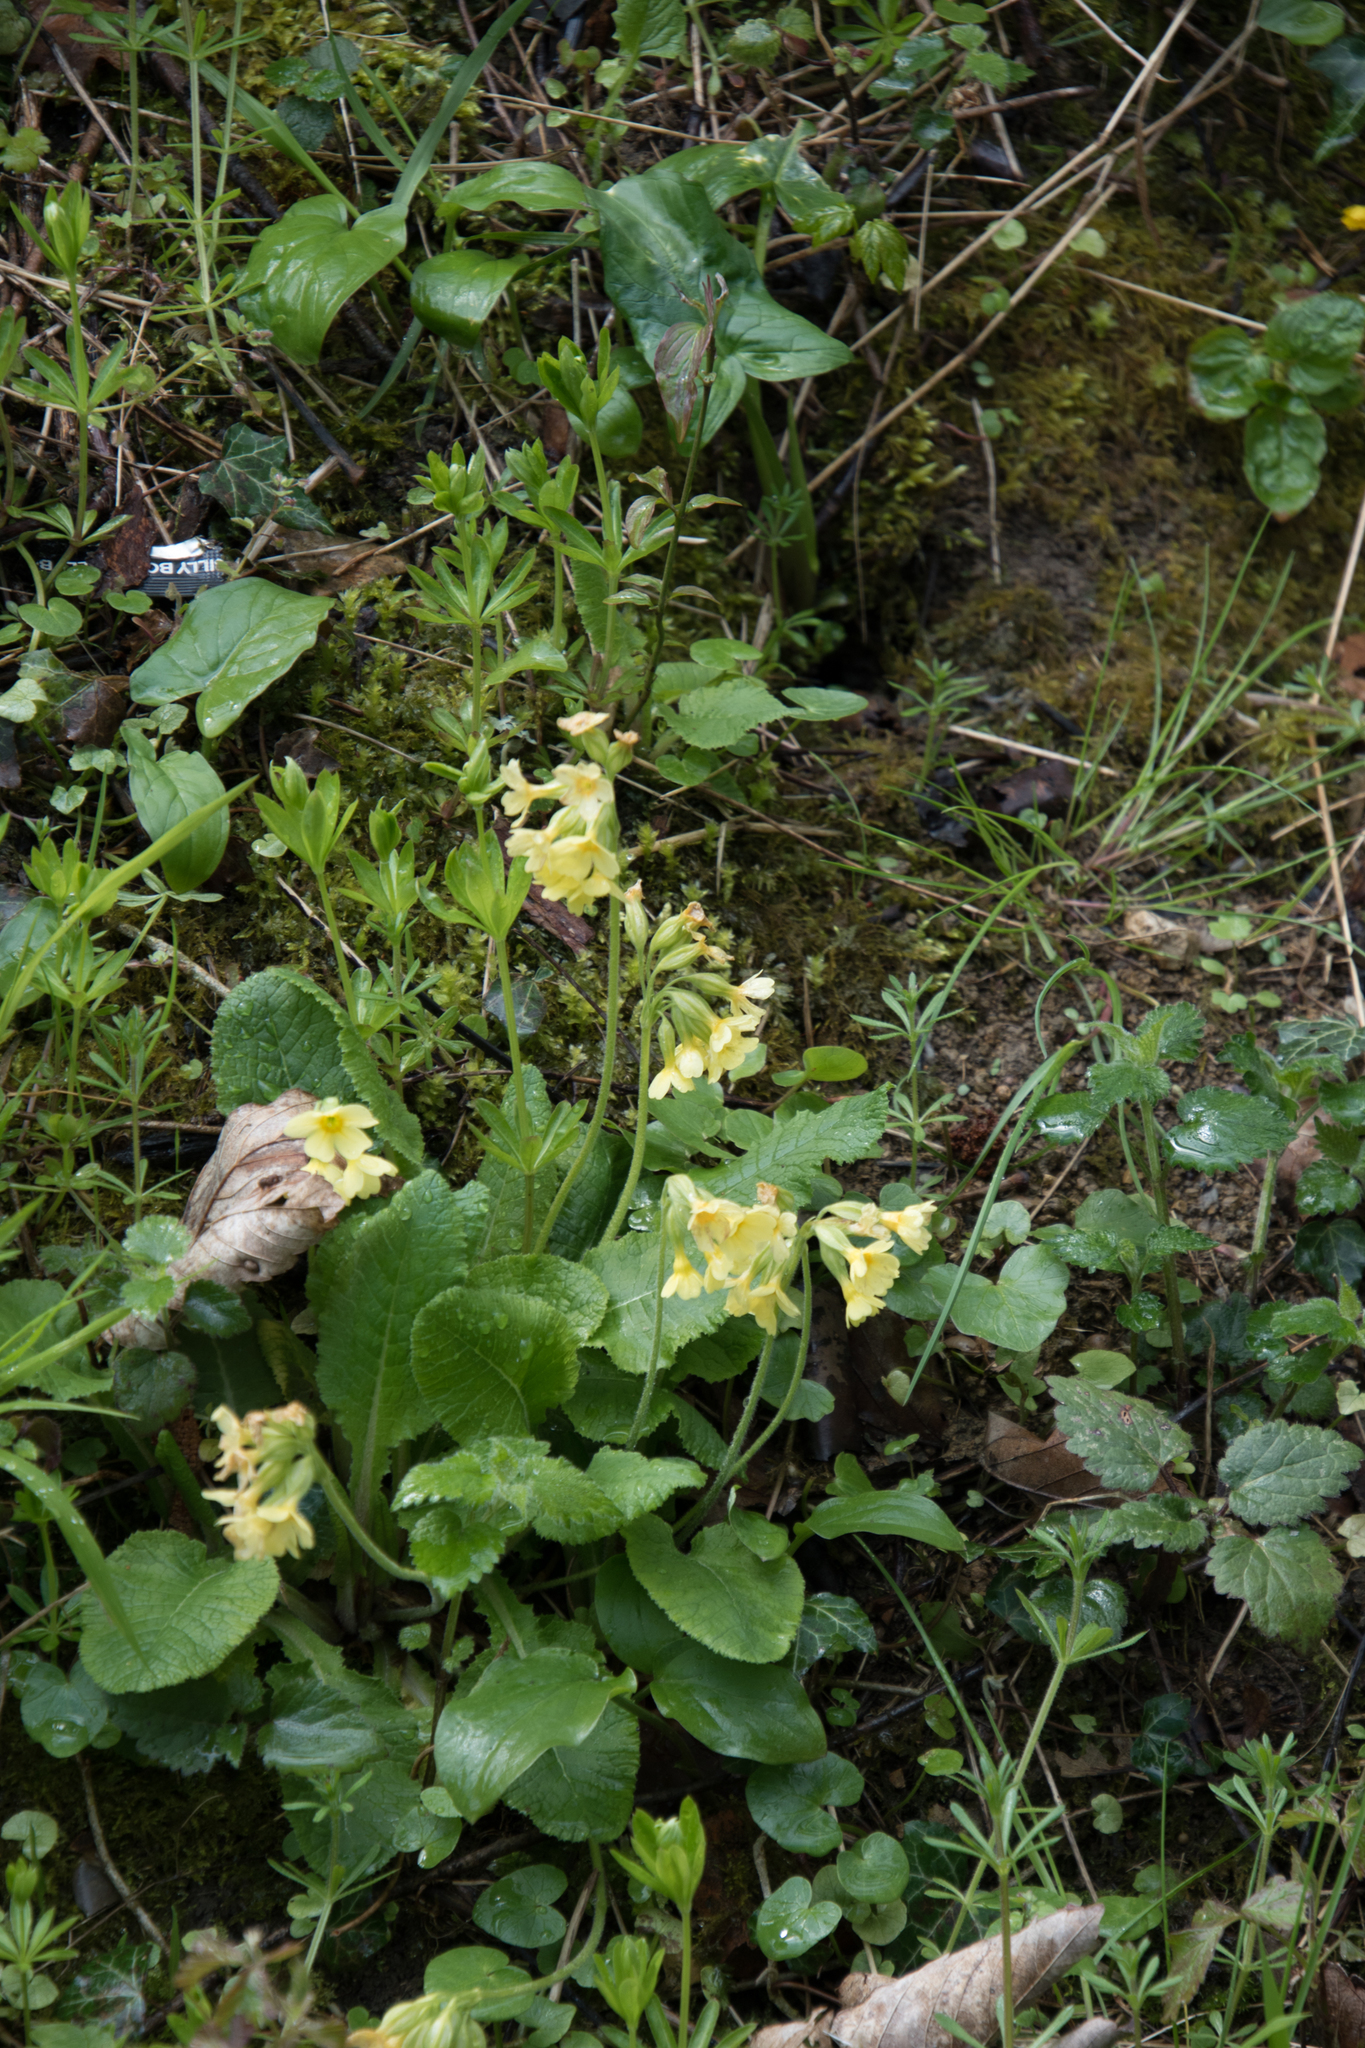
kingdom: Plantae
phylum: Tracheophyta
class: Magnoliopsida
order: Ericales
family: Primulaceae
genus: Primula
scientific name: Primula elatior
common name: Oxlip
